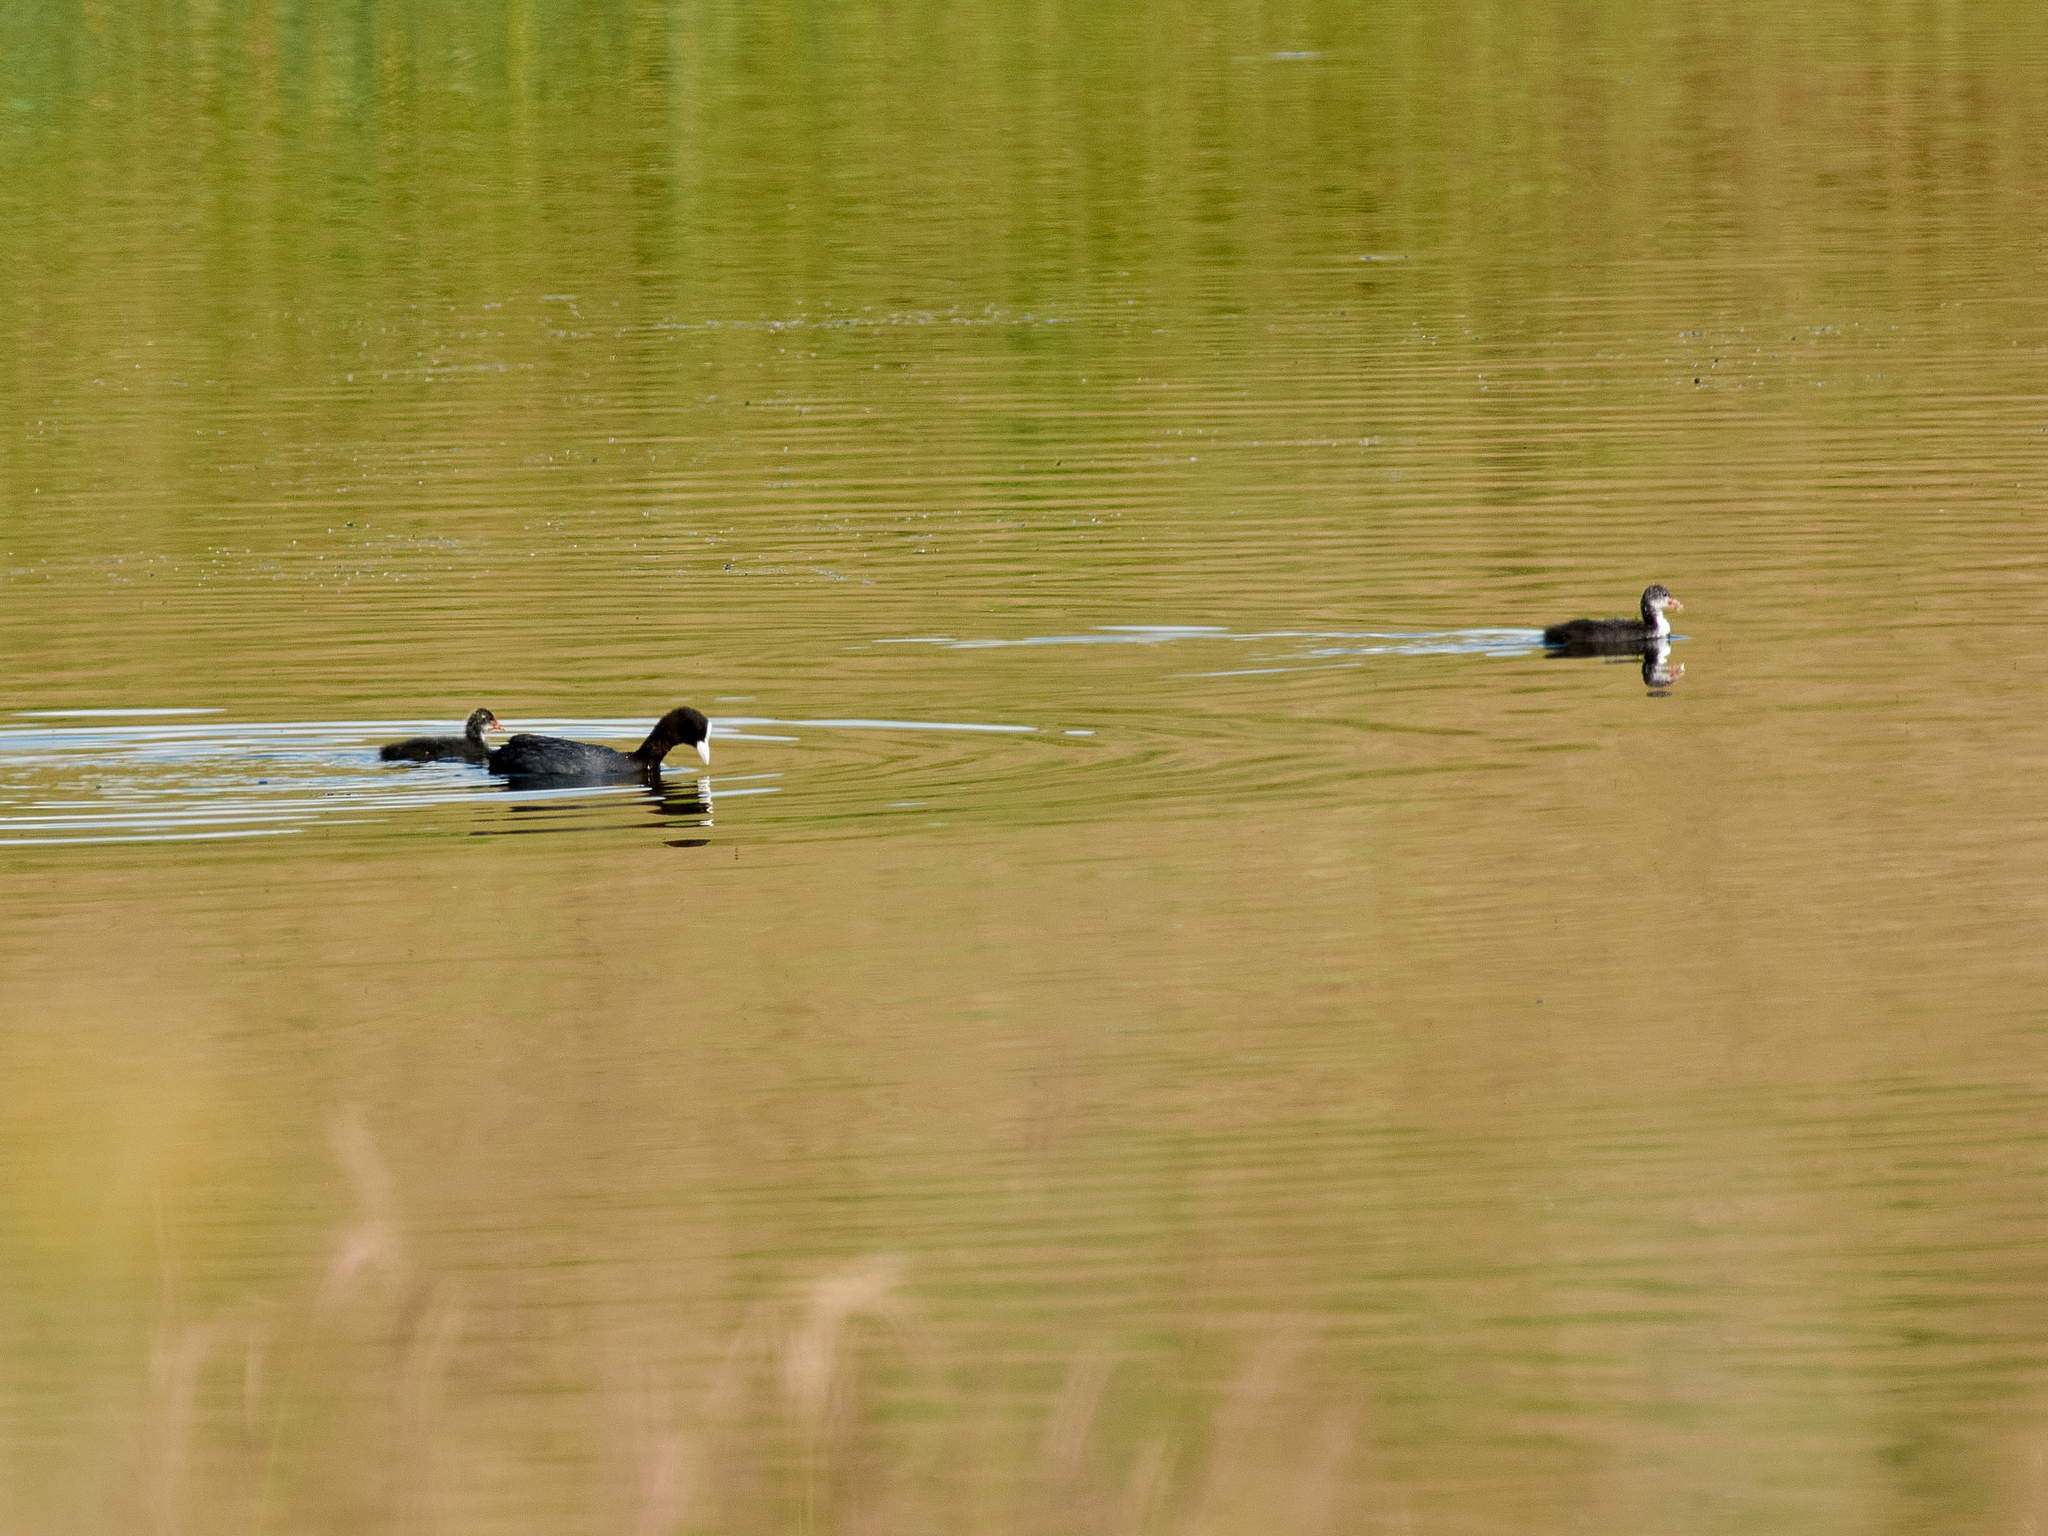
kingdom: Animalia
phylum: Chordata
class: Aves
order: Gruiformes
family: Rallidae
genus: Fulica
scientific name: Fulica atra
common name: Eurasian coot
